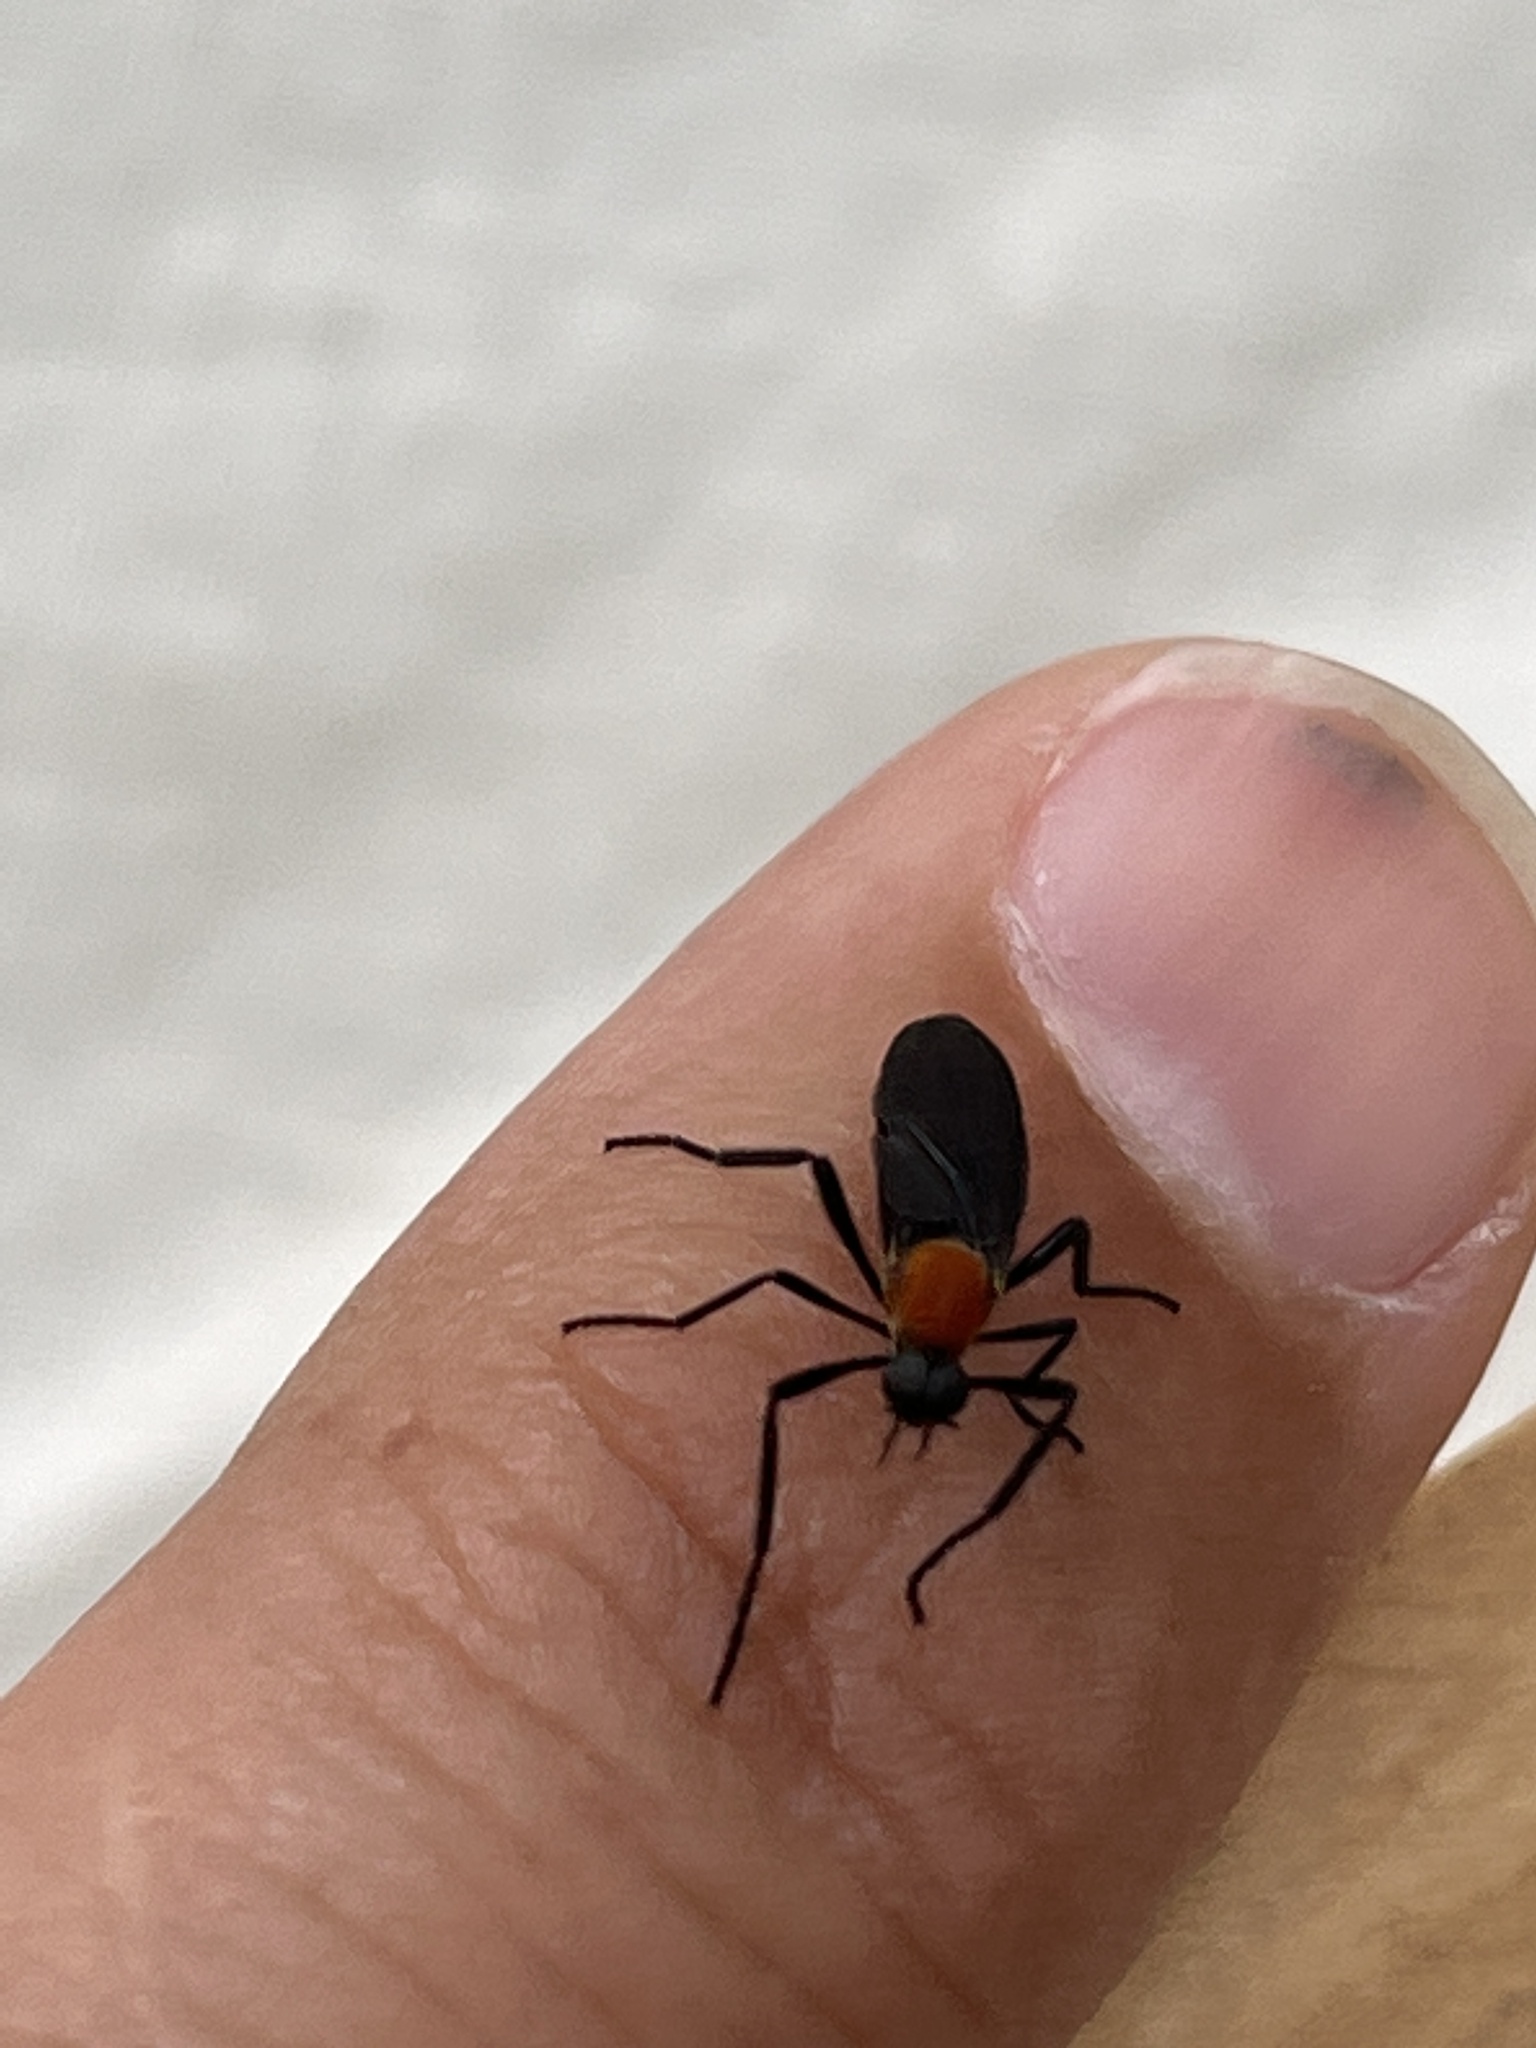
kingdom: Animalia
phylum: Arthropoda
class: Insecta
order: Diptera
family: Bibionidae
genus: Plecia
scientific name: Plecia americana
